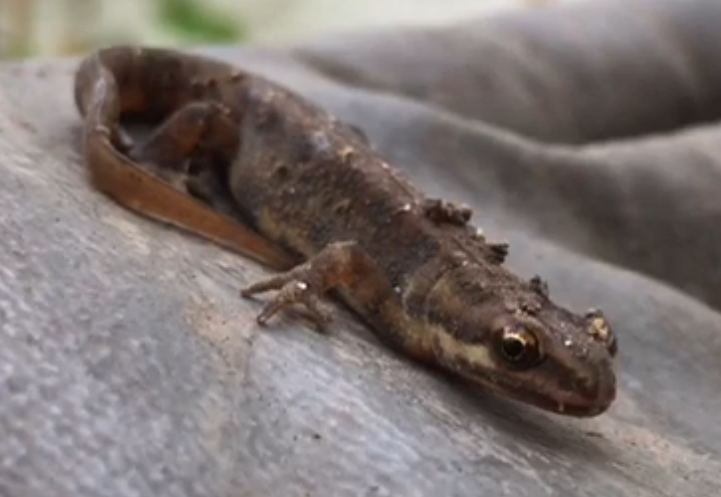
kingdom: Animalia
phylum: Chordata
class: Amphibia
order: Caudata
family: Salamandridae
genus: Lissotriton
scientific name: Lissotriton vulgaris
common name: Smooth newt
